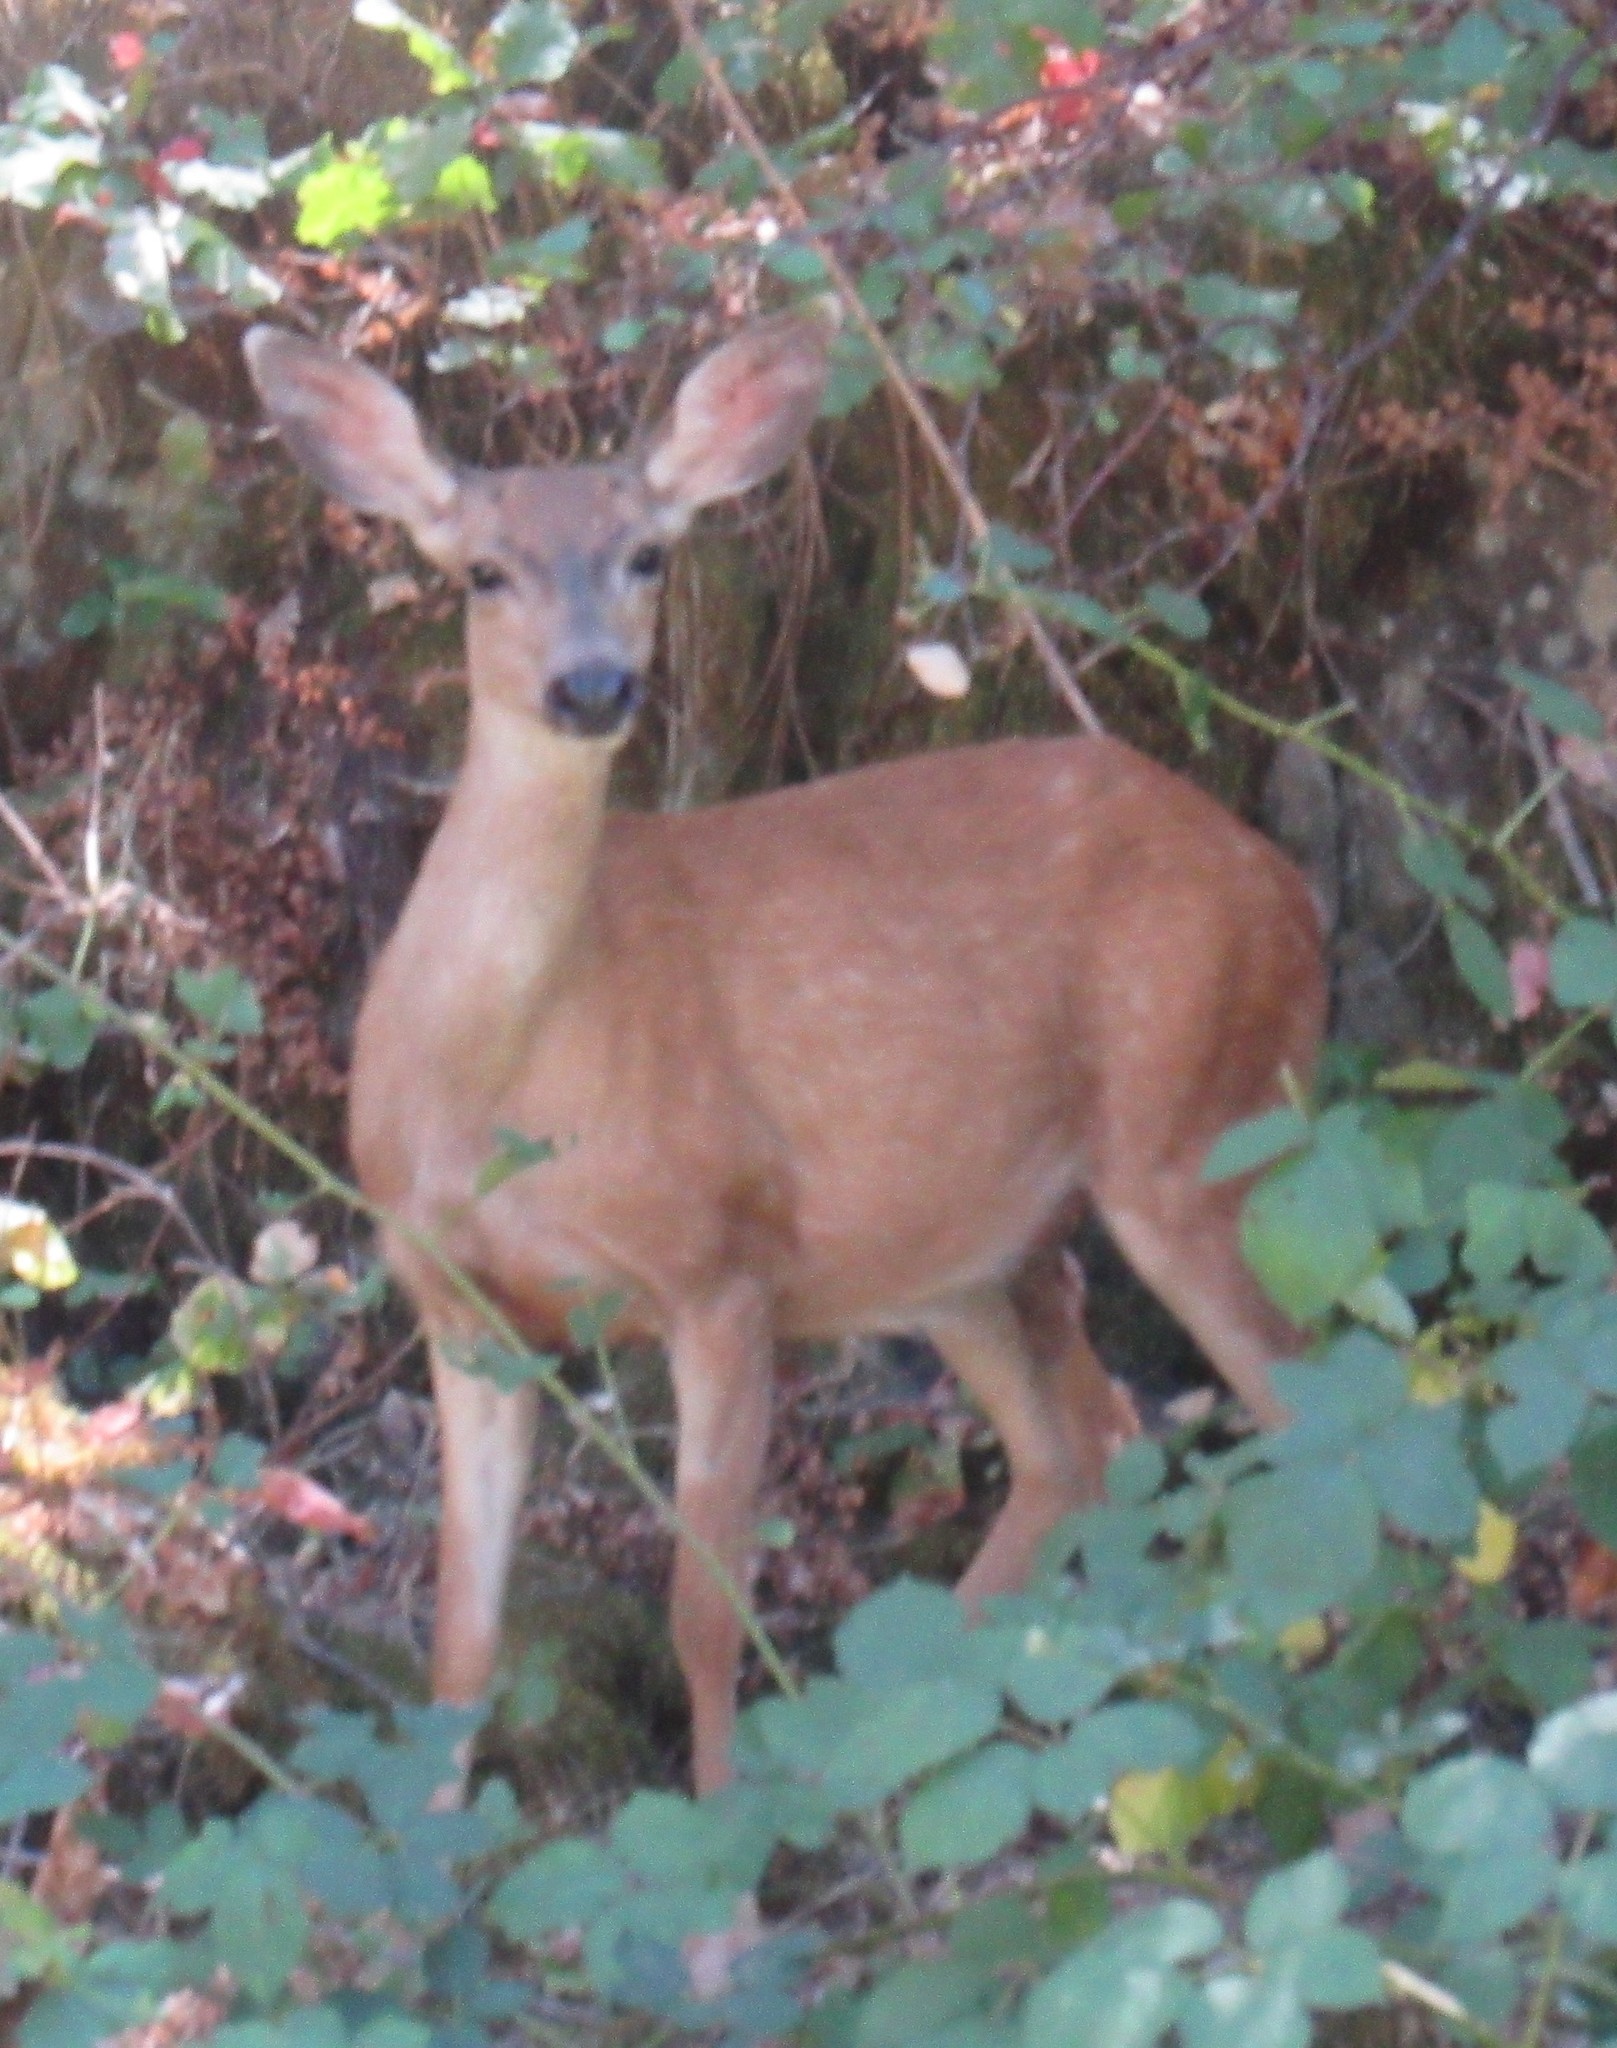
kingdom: Animalia
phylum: Chordata
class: Mammalia
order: Artiodactyla
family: Cervidae
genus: Odocoileus
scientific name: Odocoileus hemionus
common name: Mule deer
